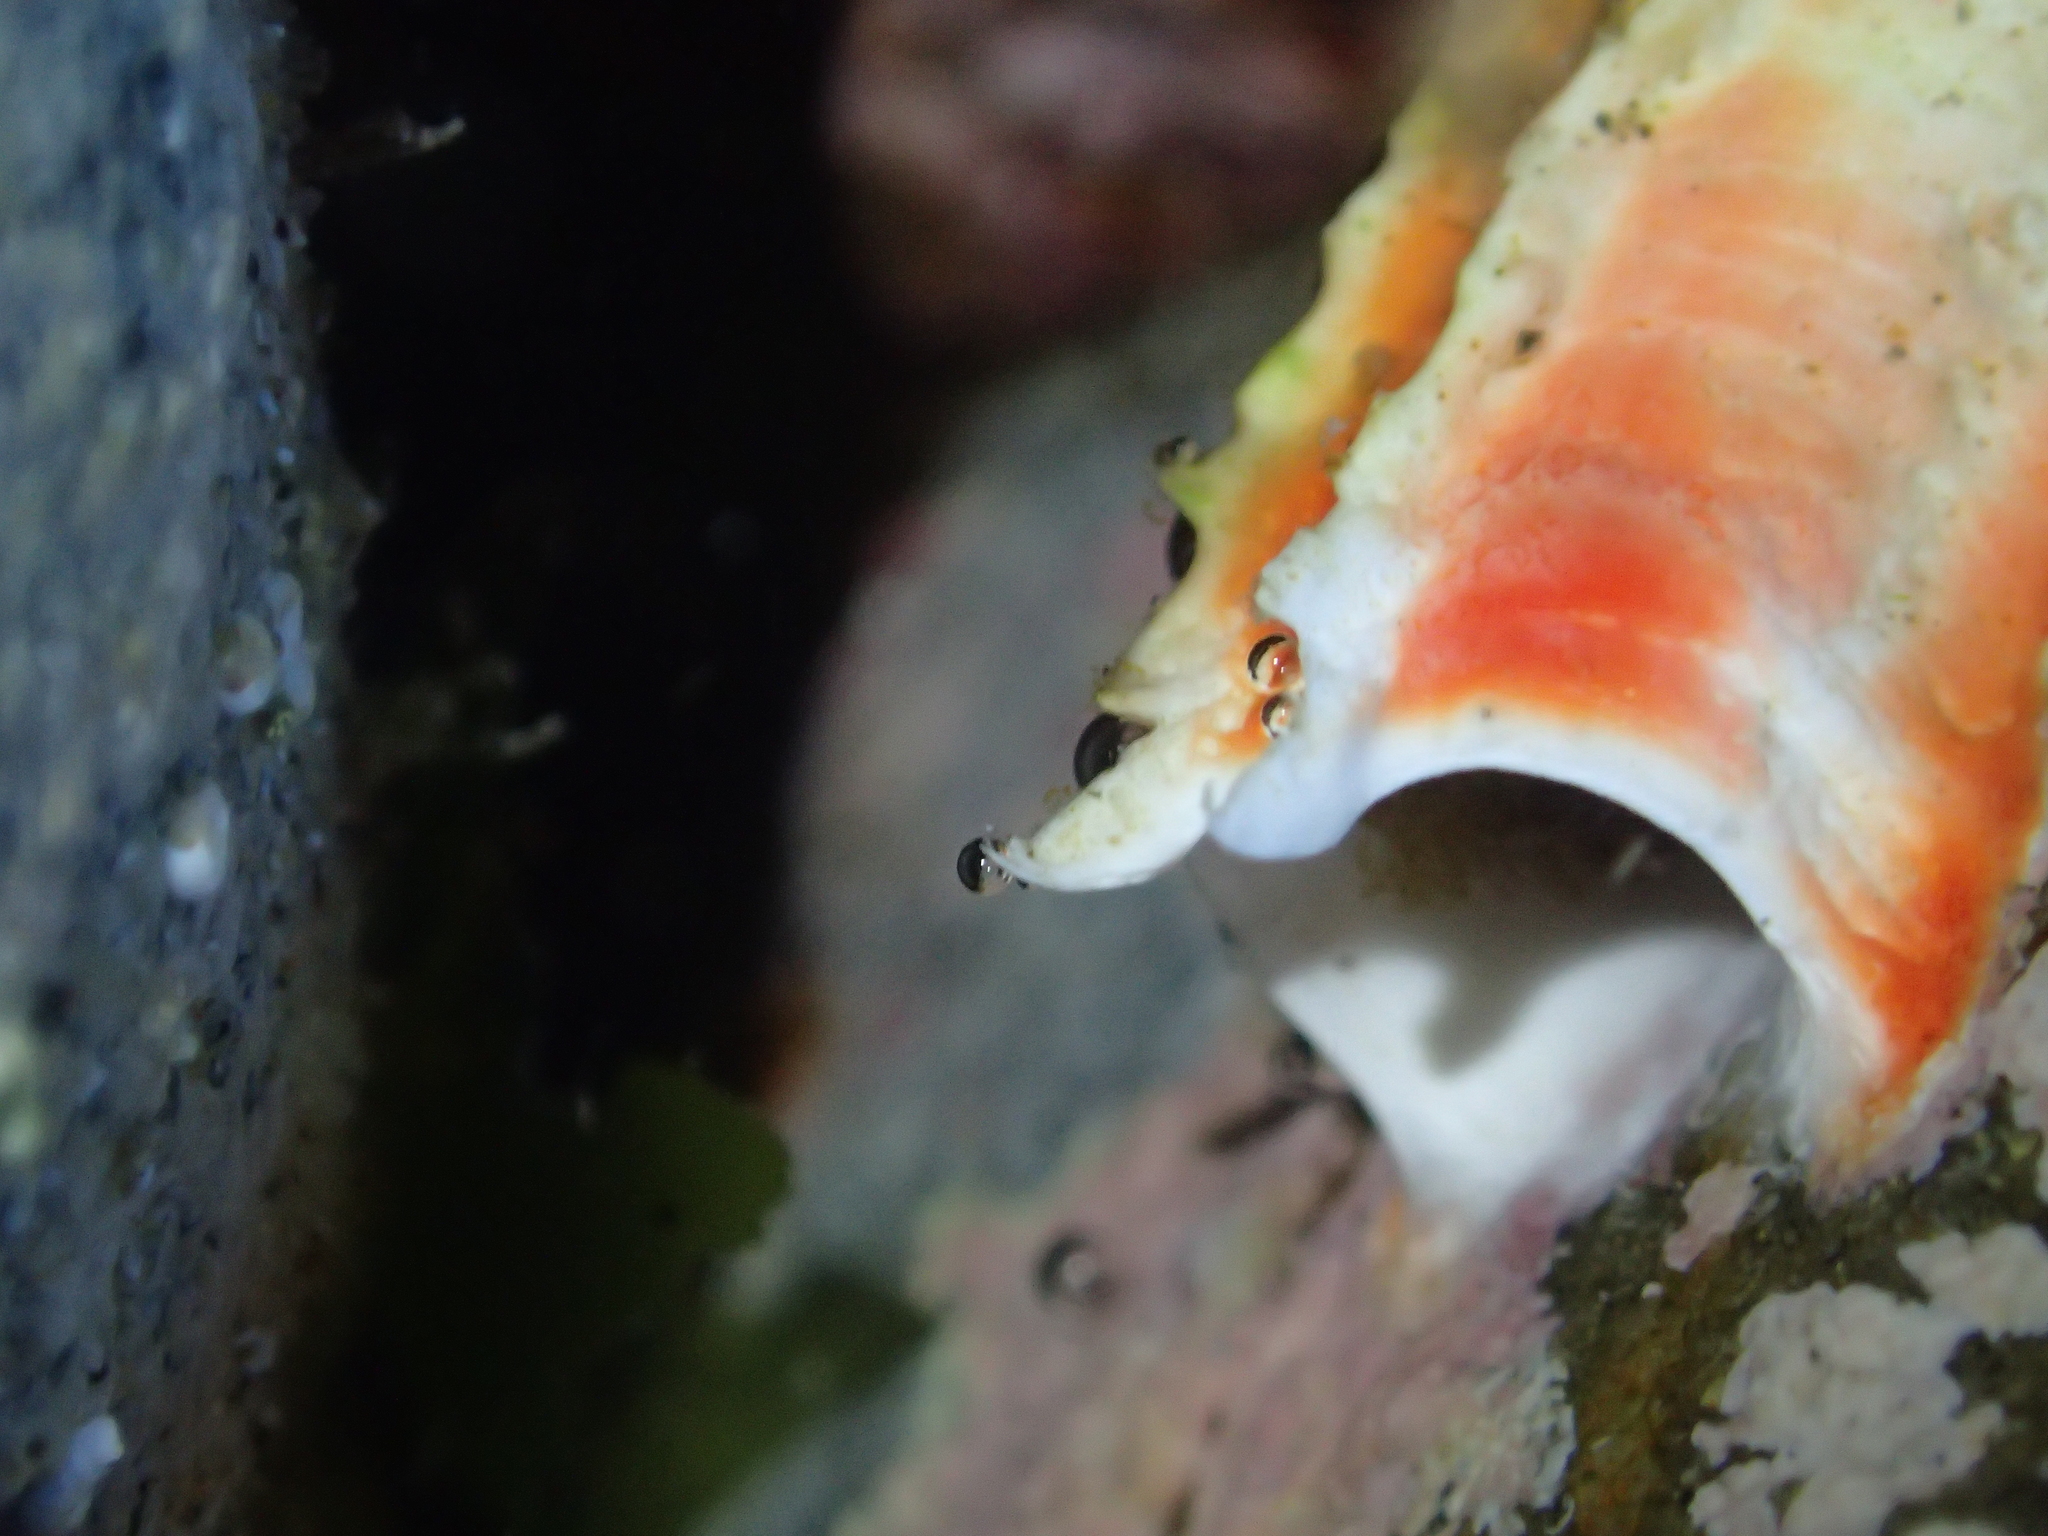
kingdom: Animalia
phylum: Annelida
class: Polychaeta
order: Sabellida
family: Serpulidae
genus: Galeolaria
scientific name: Galeolaria hystrix
